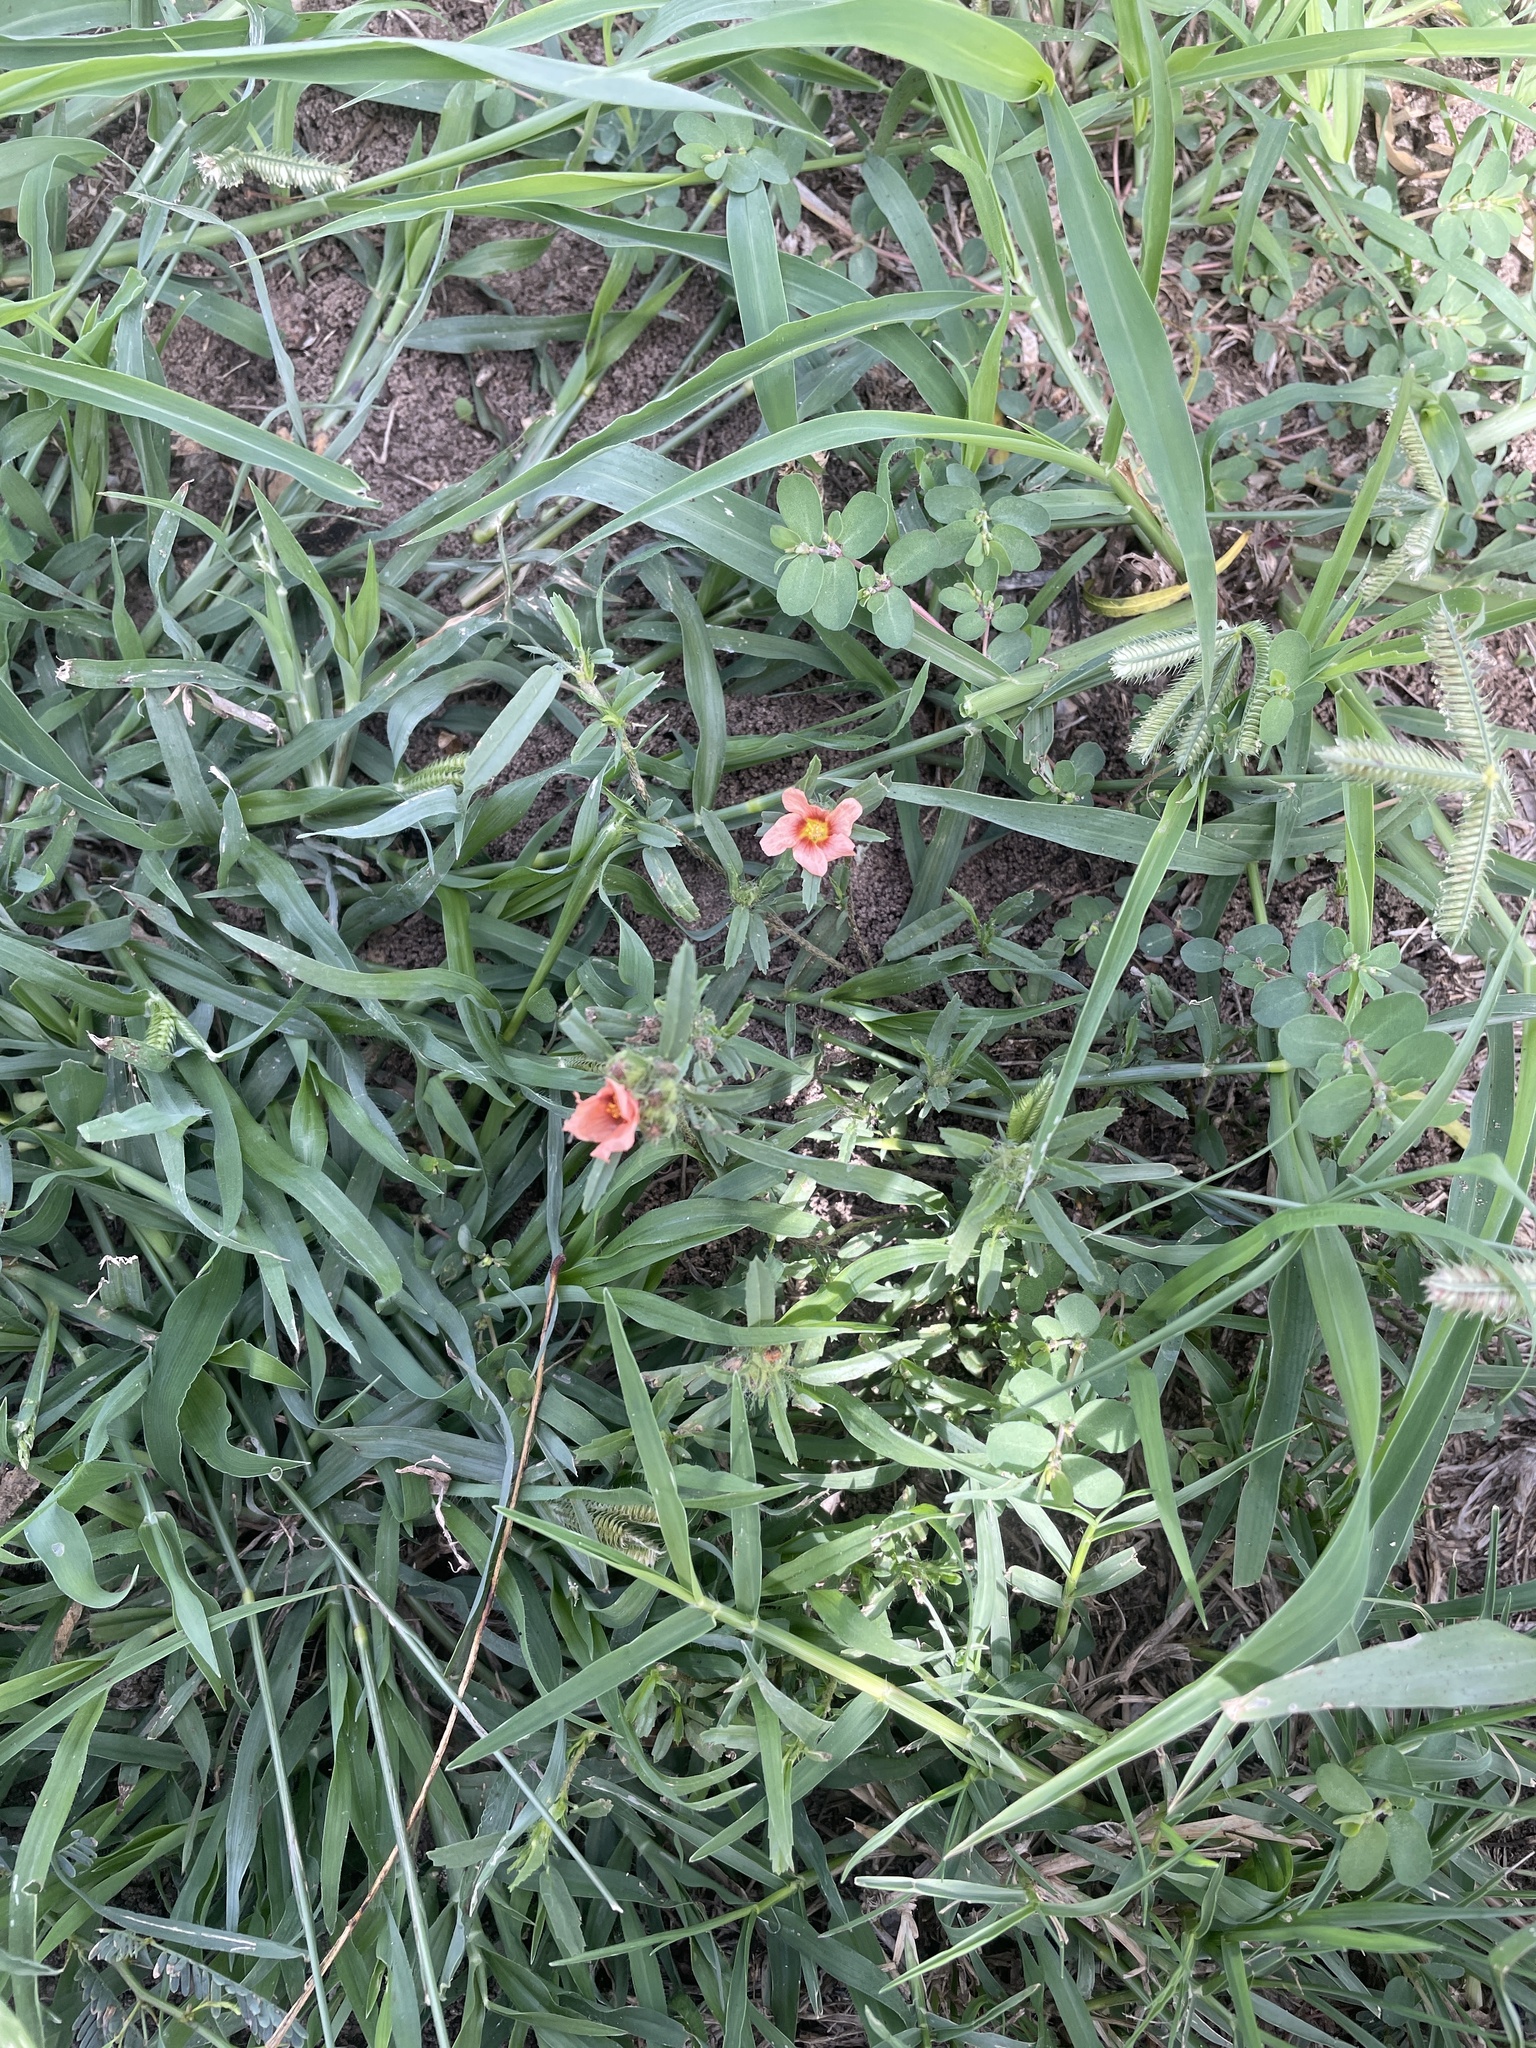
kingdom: Plantae
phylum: Tracheophyta
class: Magnoliopsida
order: Malvales
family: Malvaceae
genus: Sida
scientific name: Sida ciliaris
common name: Bracted fanpetals
